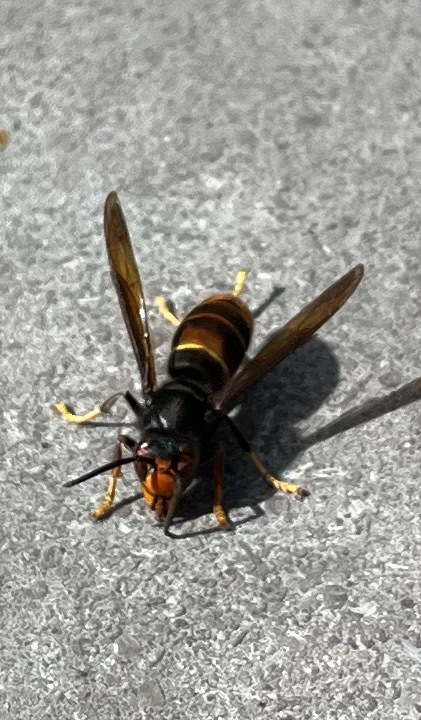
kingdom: Animalia
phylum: Arthropoda
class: Insecta
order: Hymenoptera
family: Vespidae
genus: Vespa
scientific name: Vespa velutina
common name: Asian hornet
